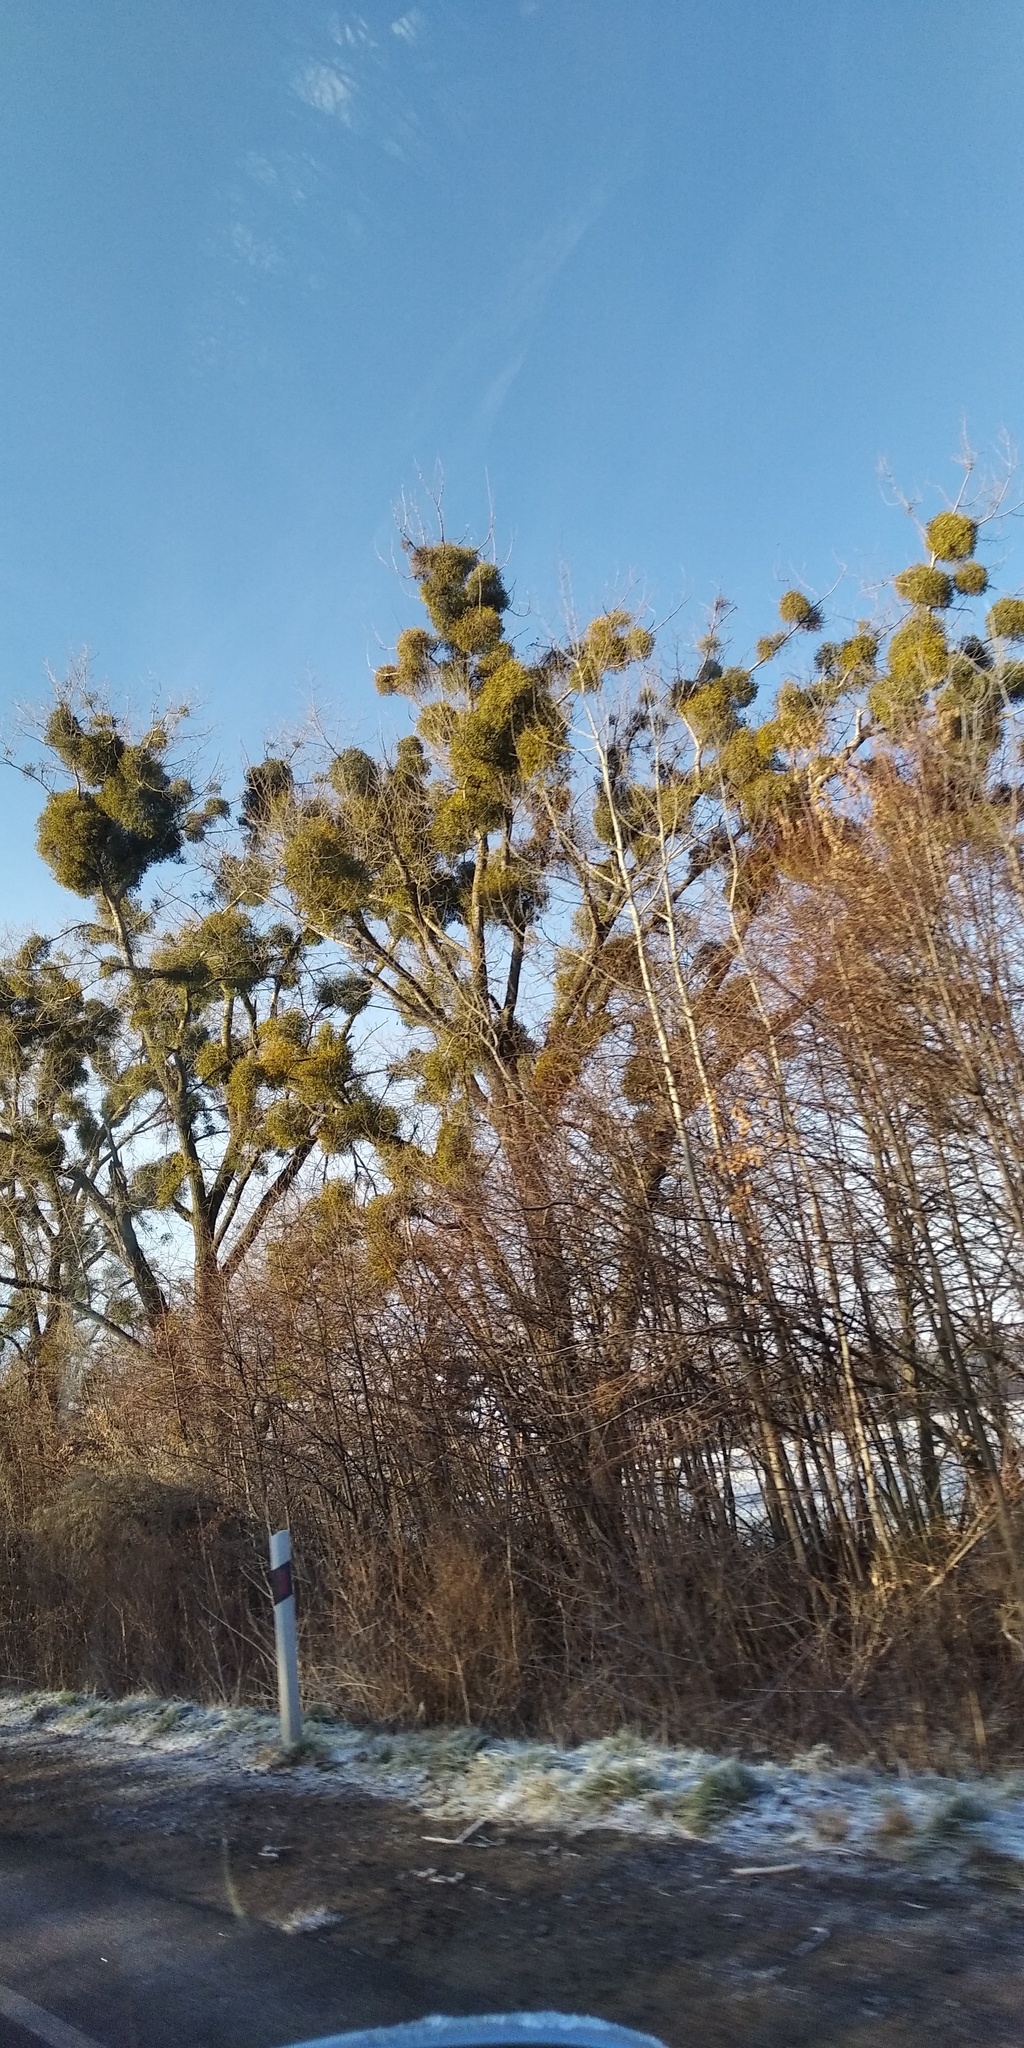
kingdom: Plantae
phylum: Tracheophyta
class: Magnoliopsida
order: Santalales
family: Viscaceae
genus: Viscum
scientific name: Viscum album
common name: Mistletoe
